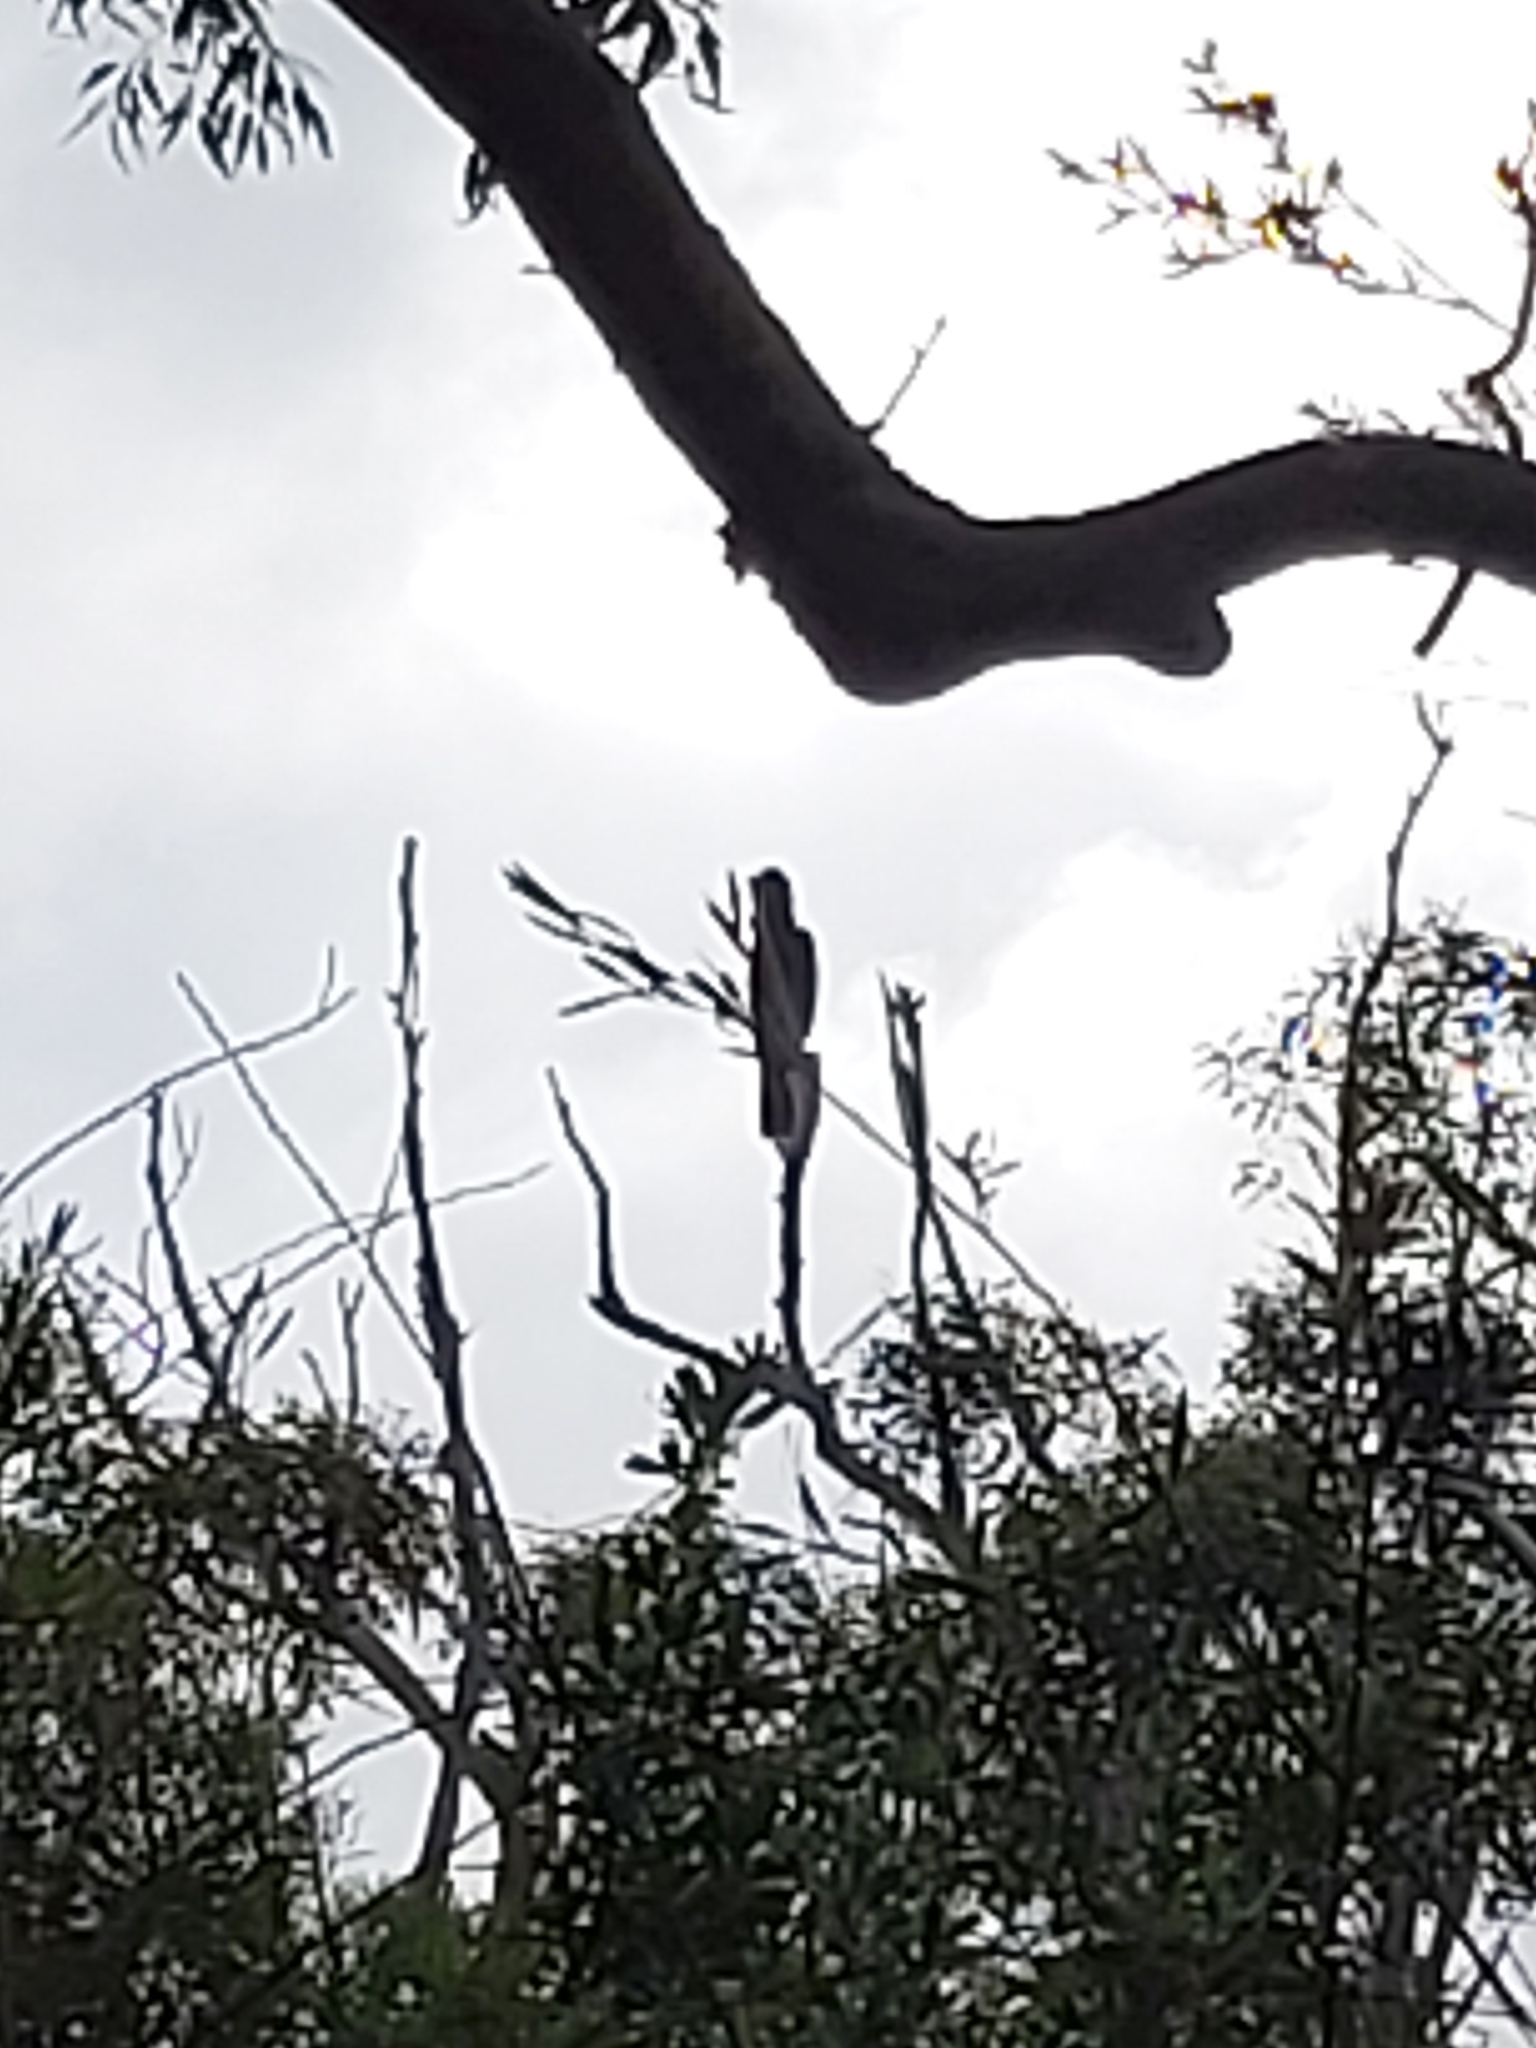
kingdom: Animalia
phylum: Chordata
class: Aves
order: Psittaciformes
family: Cacatuidae
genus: Zanda
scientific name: Zanda funerea
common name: Yellow-tailed black-cockatoo
